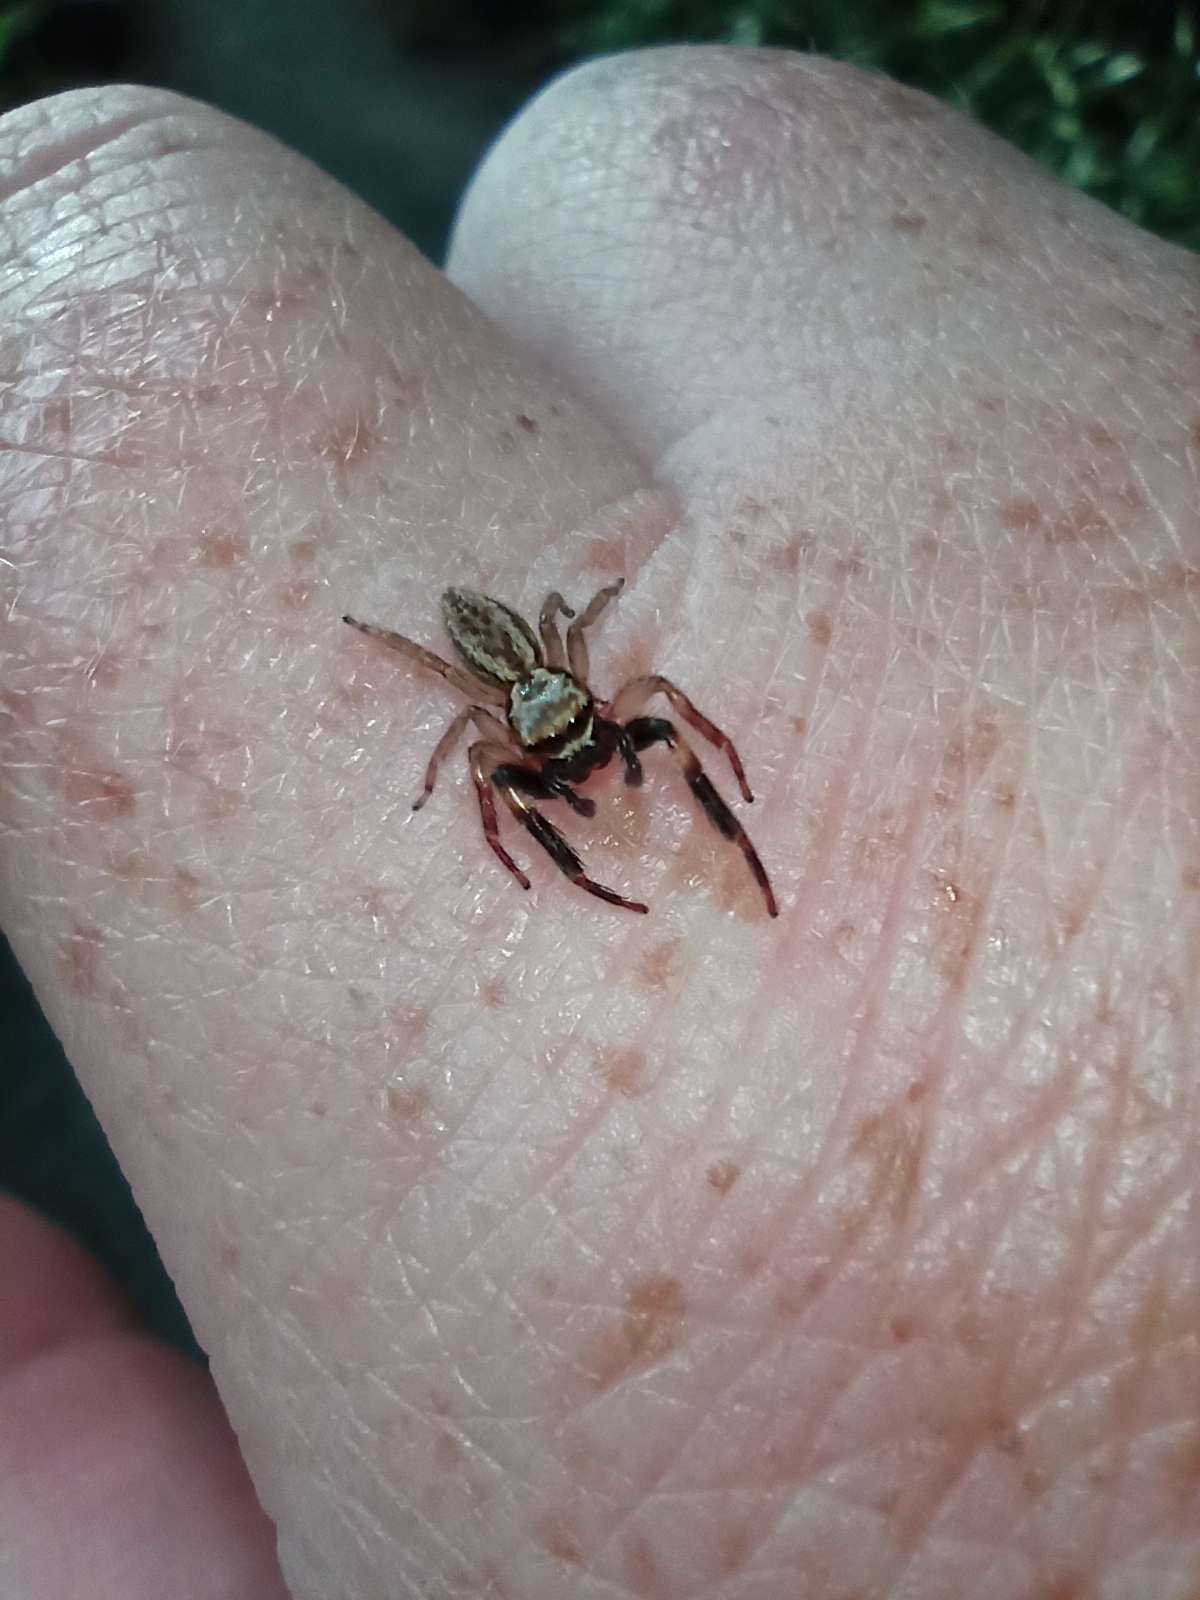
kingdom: Animalia
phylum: Arthropoda
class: Arachnida
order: Araneae
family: Salticidae
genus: Trite
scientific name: Trite auricoma
